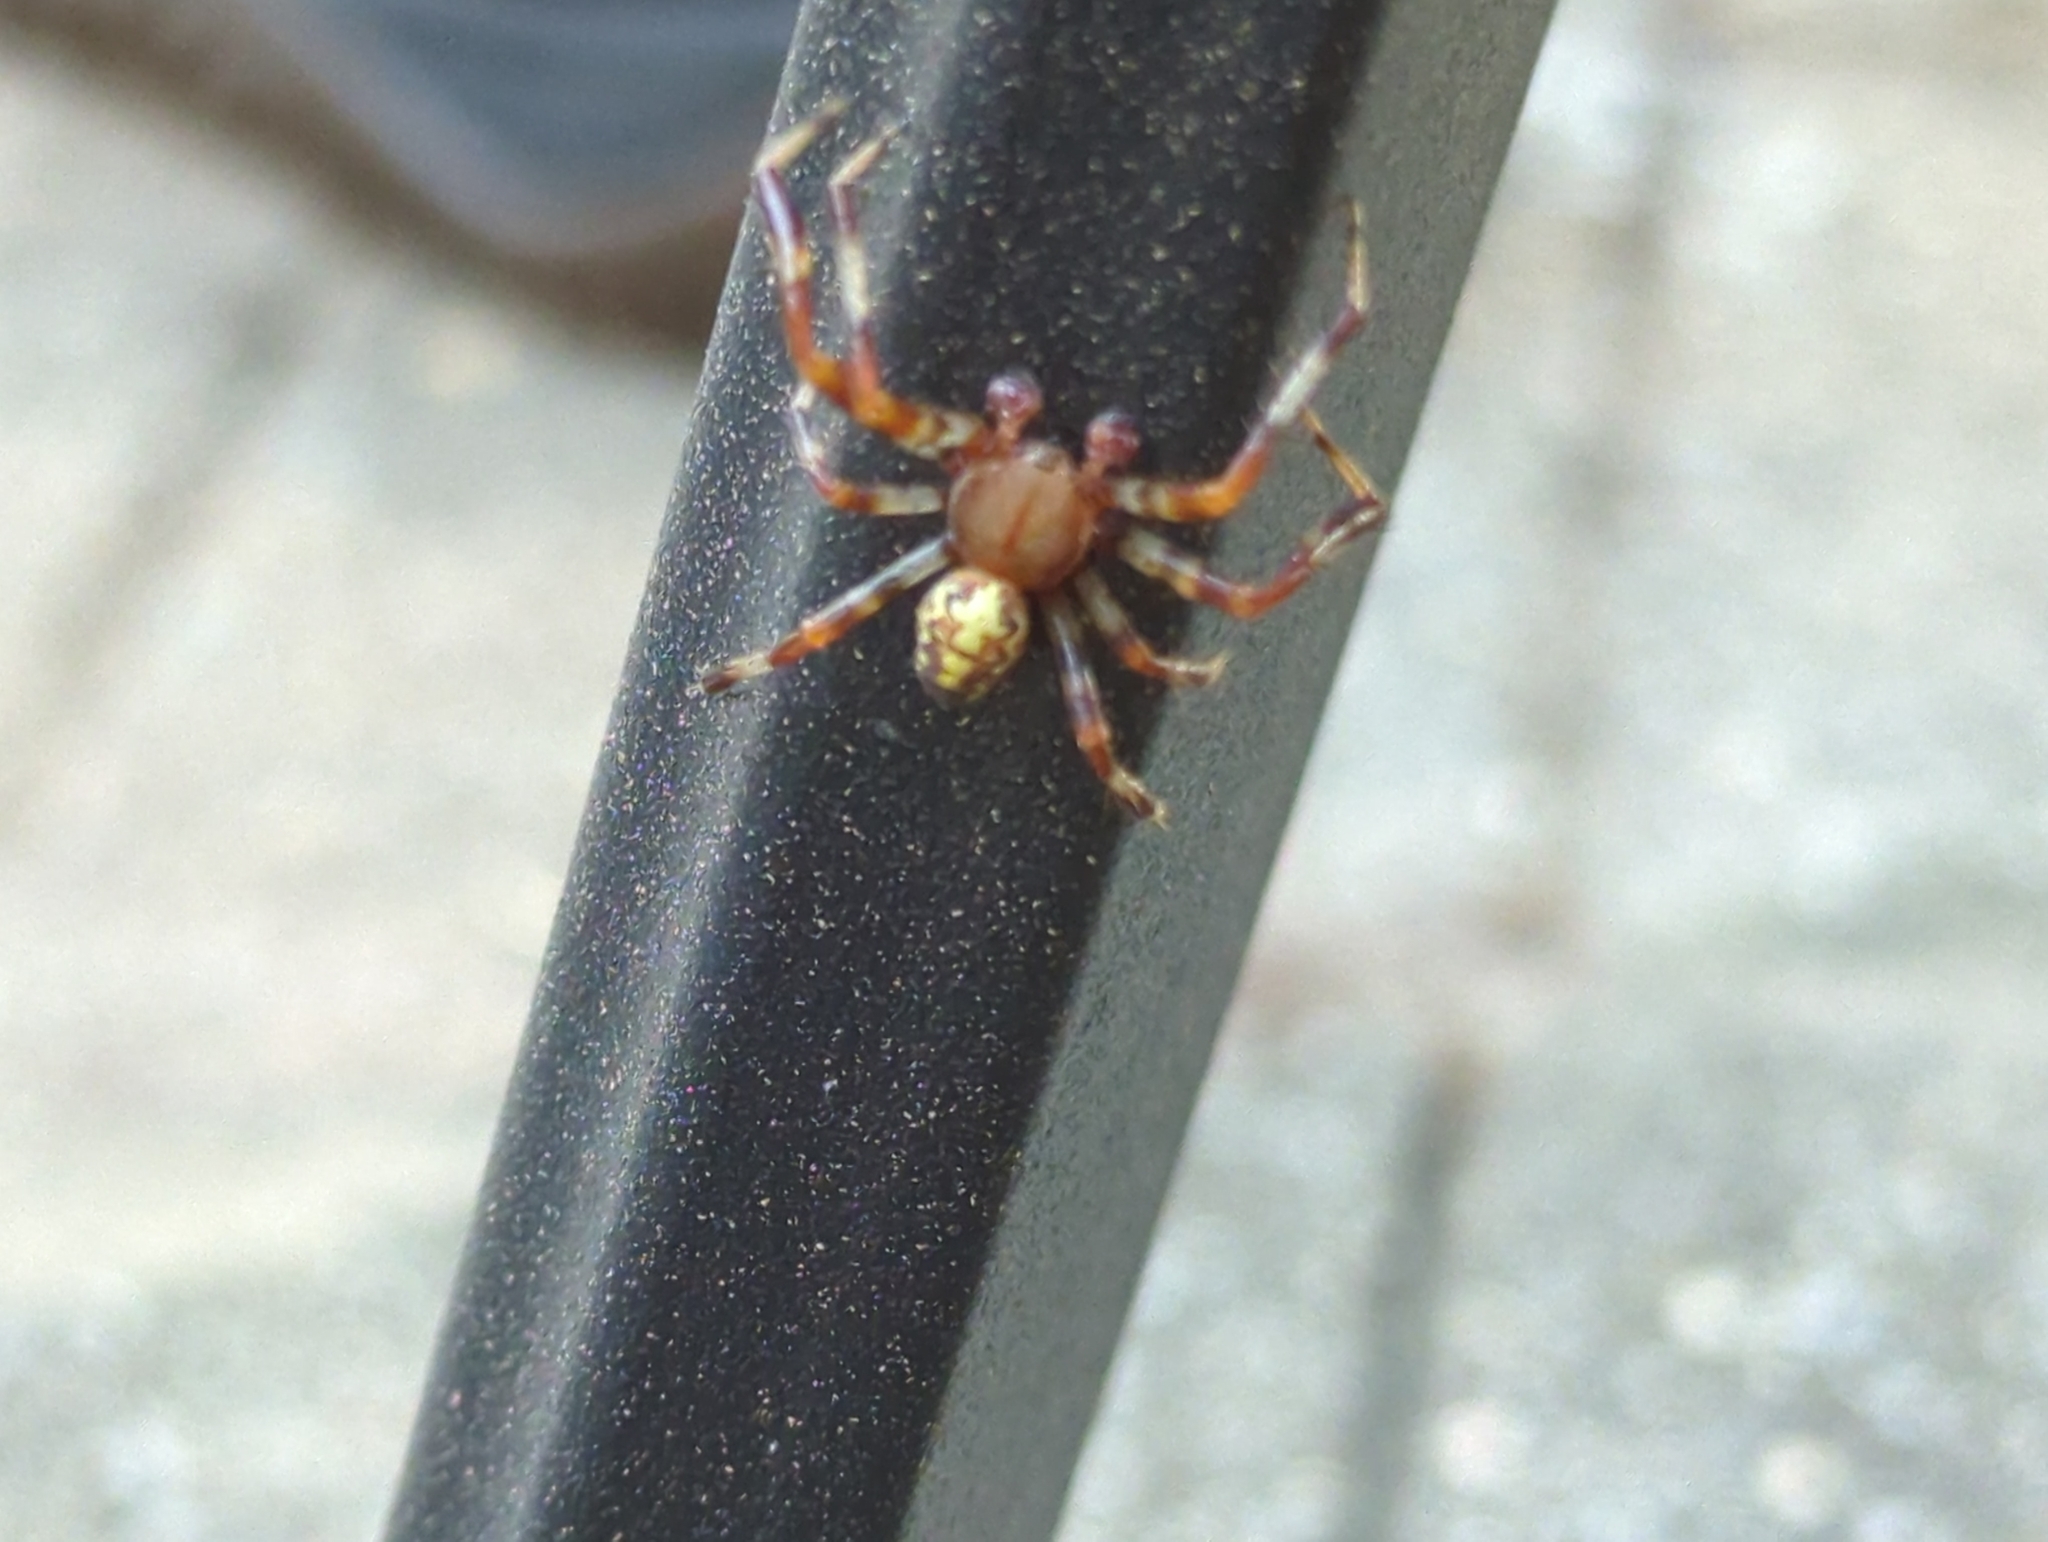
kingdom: Animalia
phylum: Arthropoda
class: Arachnida
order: Araneae
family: Araneidae
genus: Araneus
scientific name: Araneus marmoreus
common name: Marbled orbweaver
